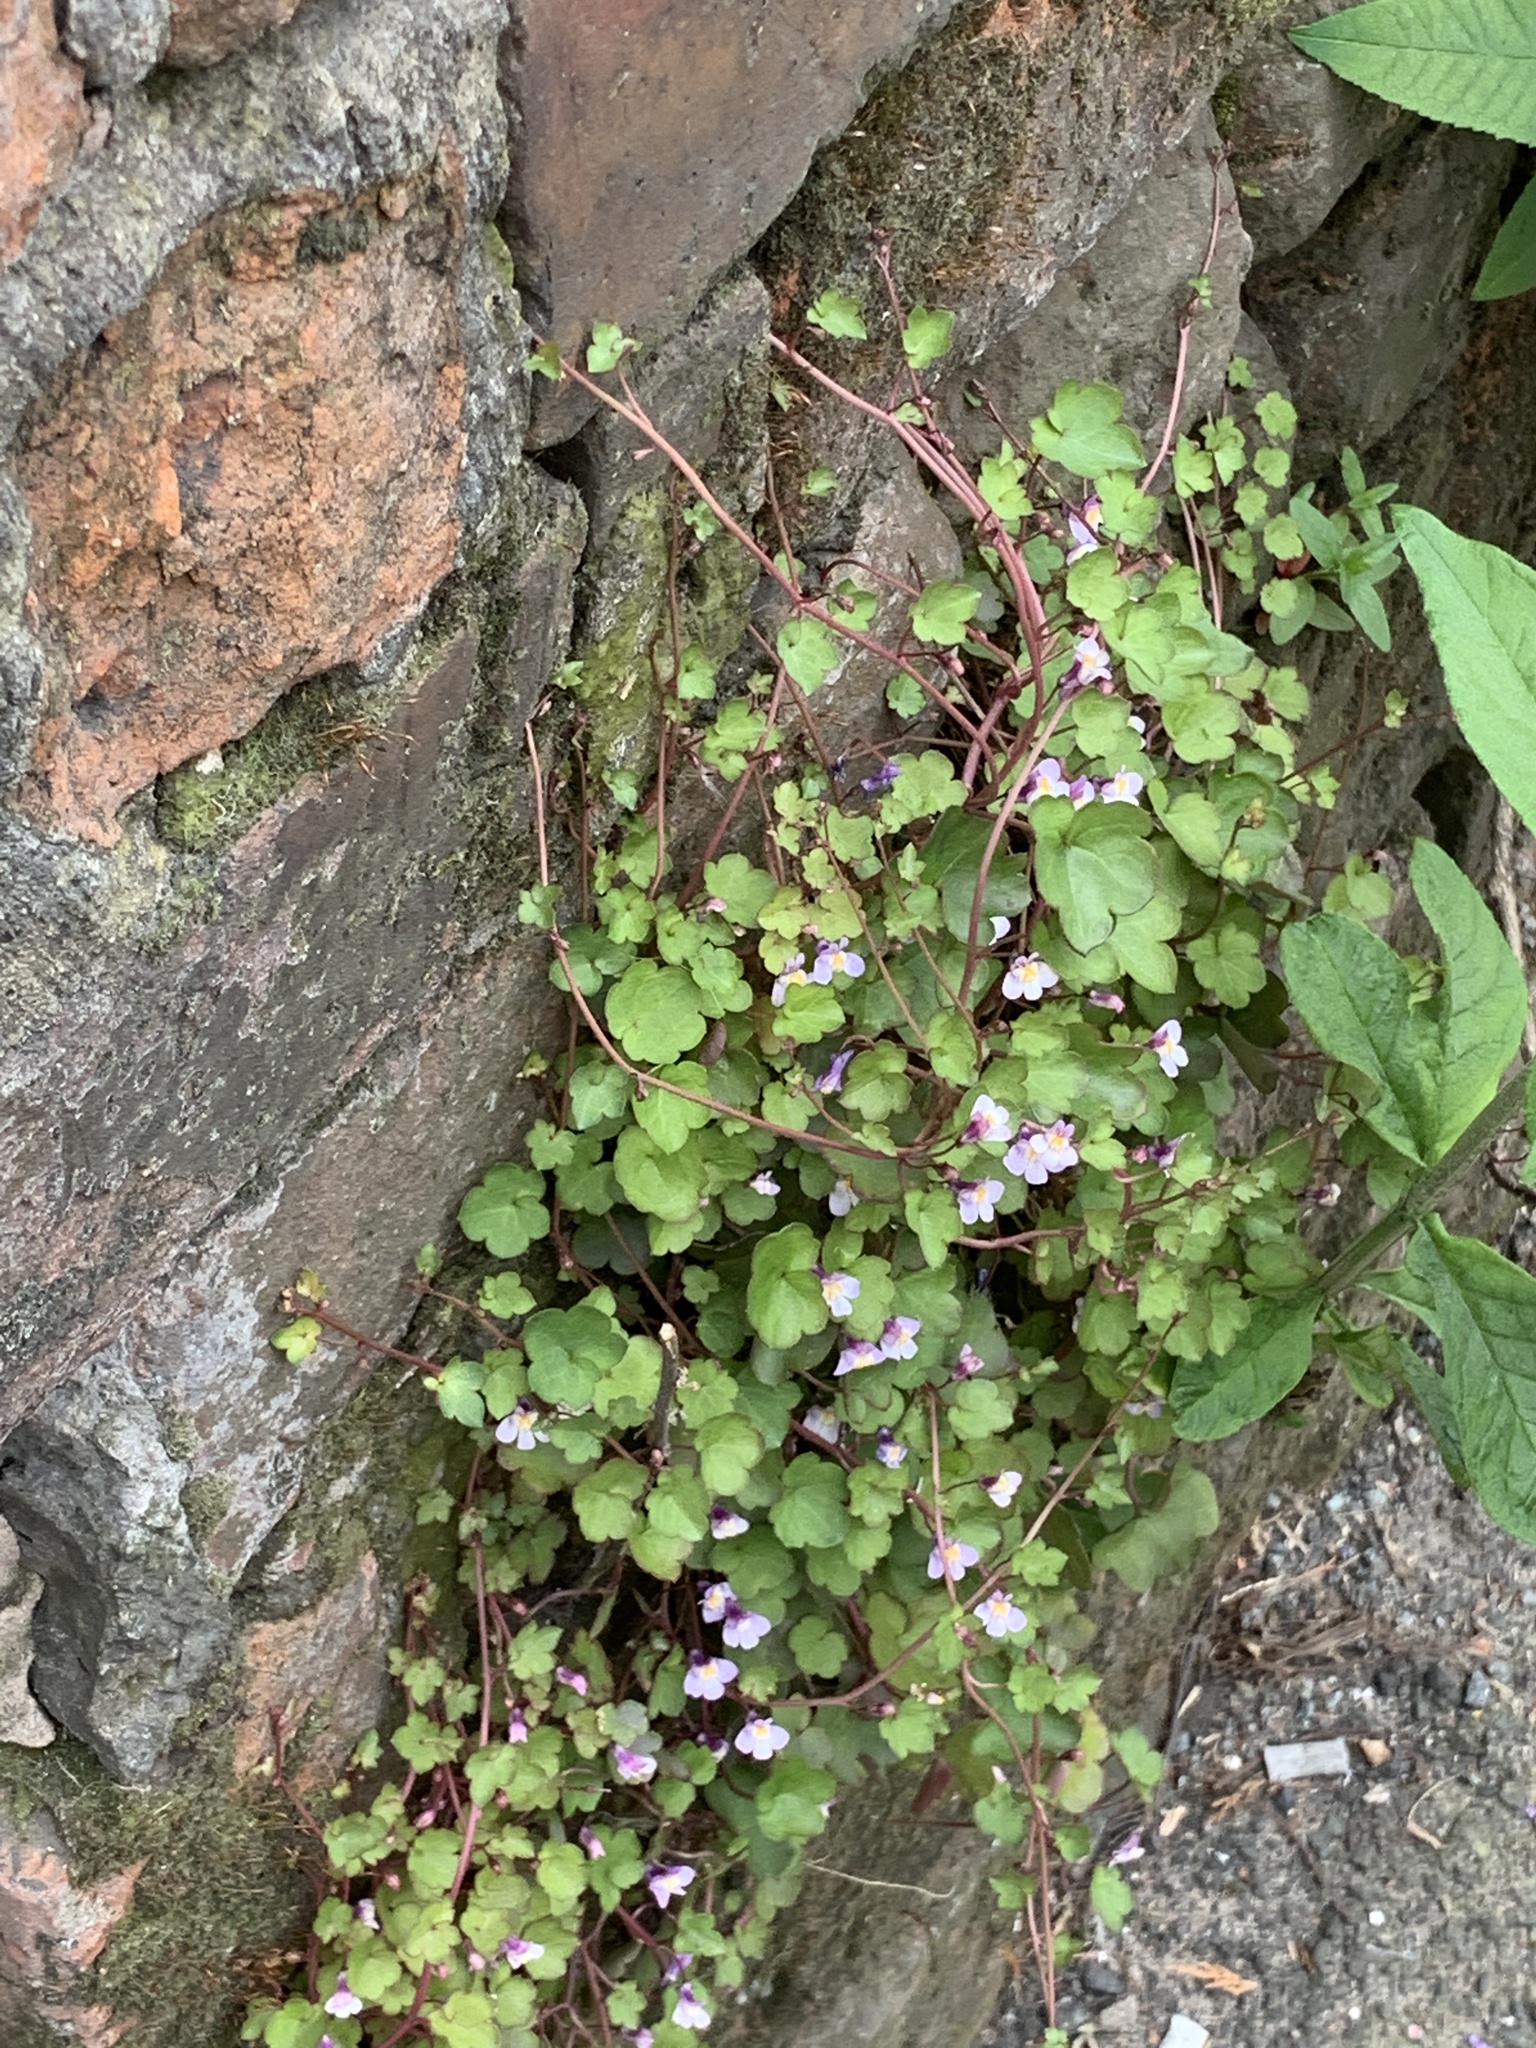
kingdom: Plantae
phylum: Tracheophyta
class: Magnoliopsida
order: Lamiales
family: Plantaginaceae
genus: Cymbalaria
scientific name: Cymbalaria muralis
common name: Ivy-leaved toadflax
